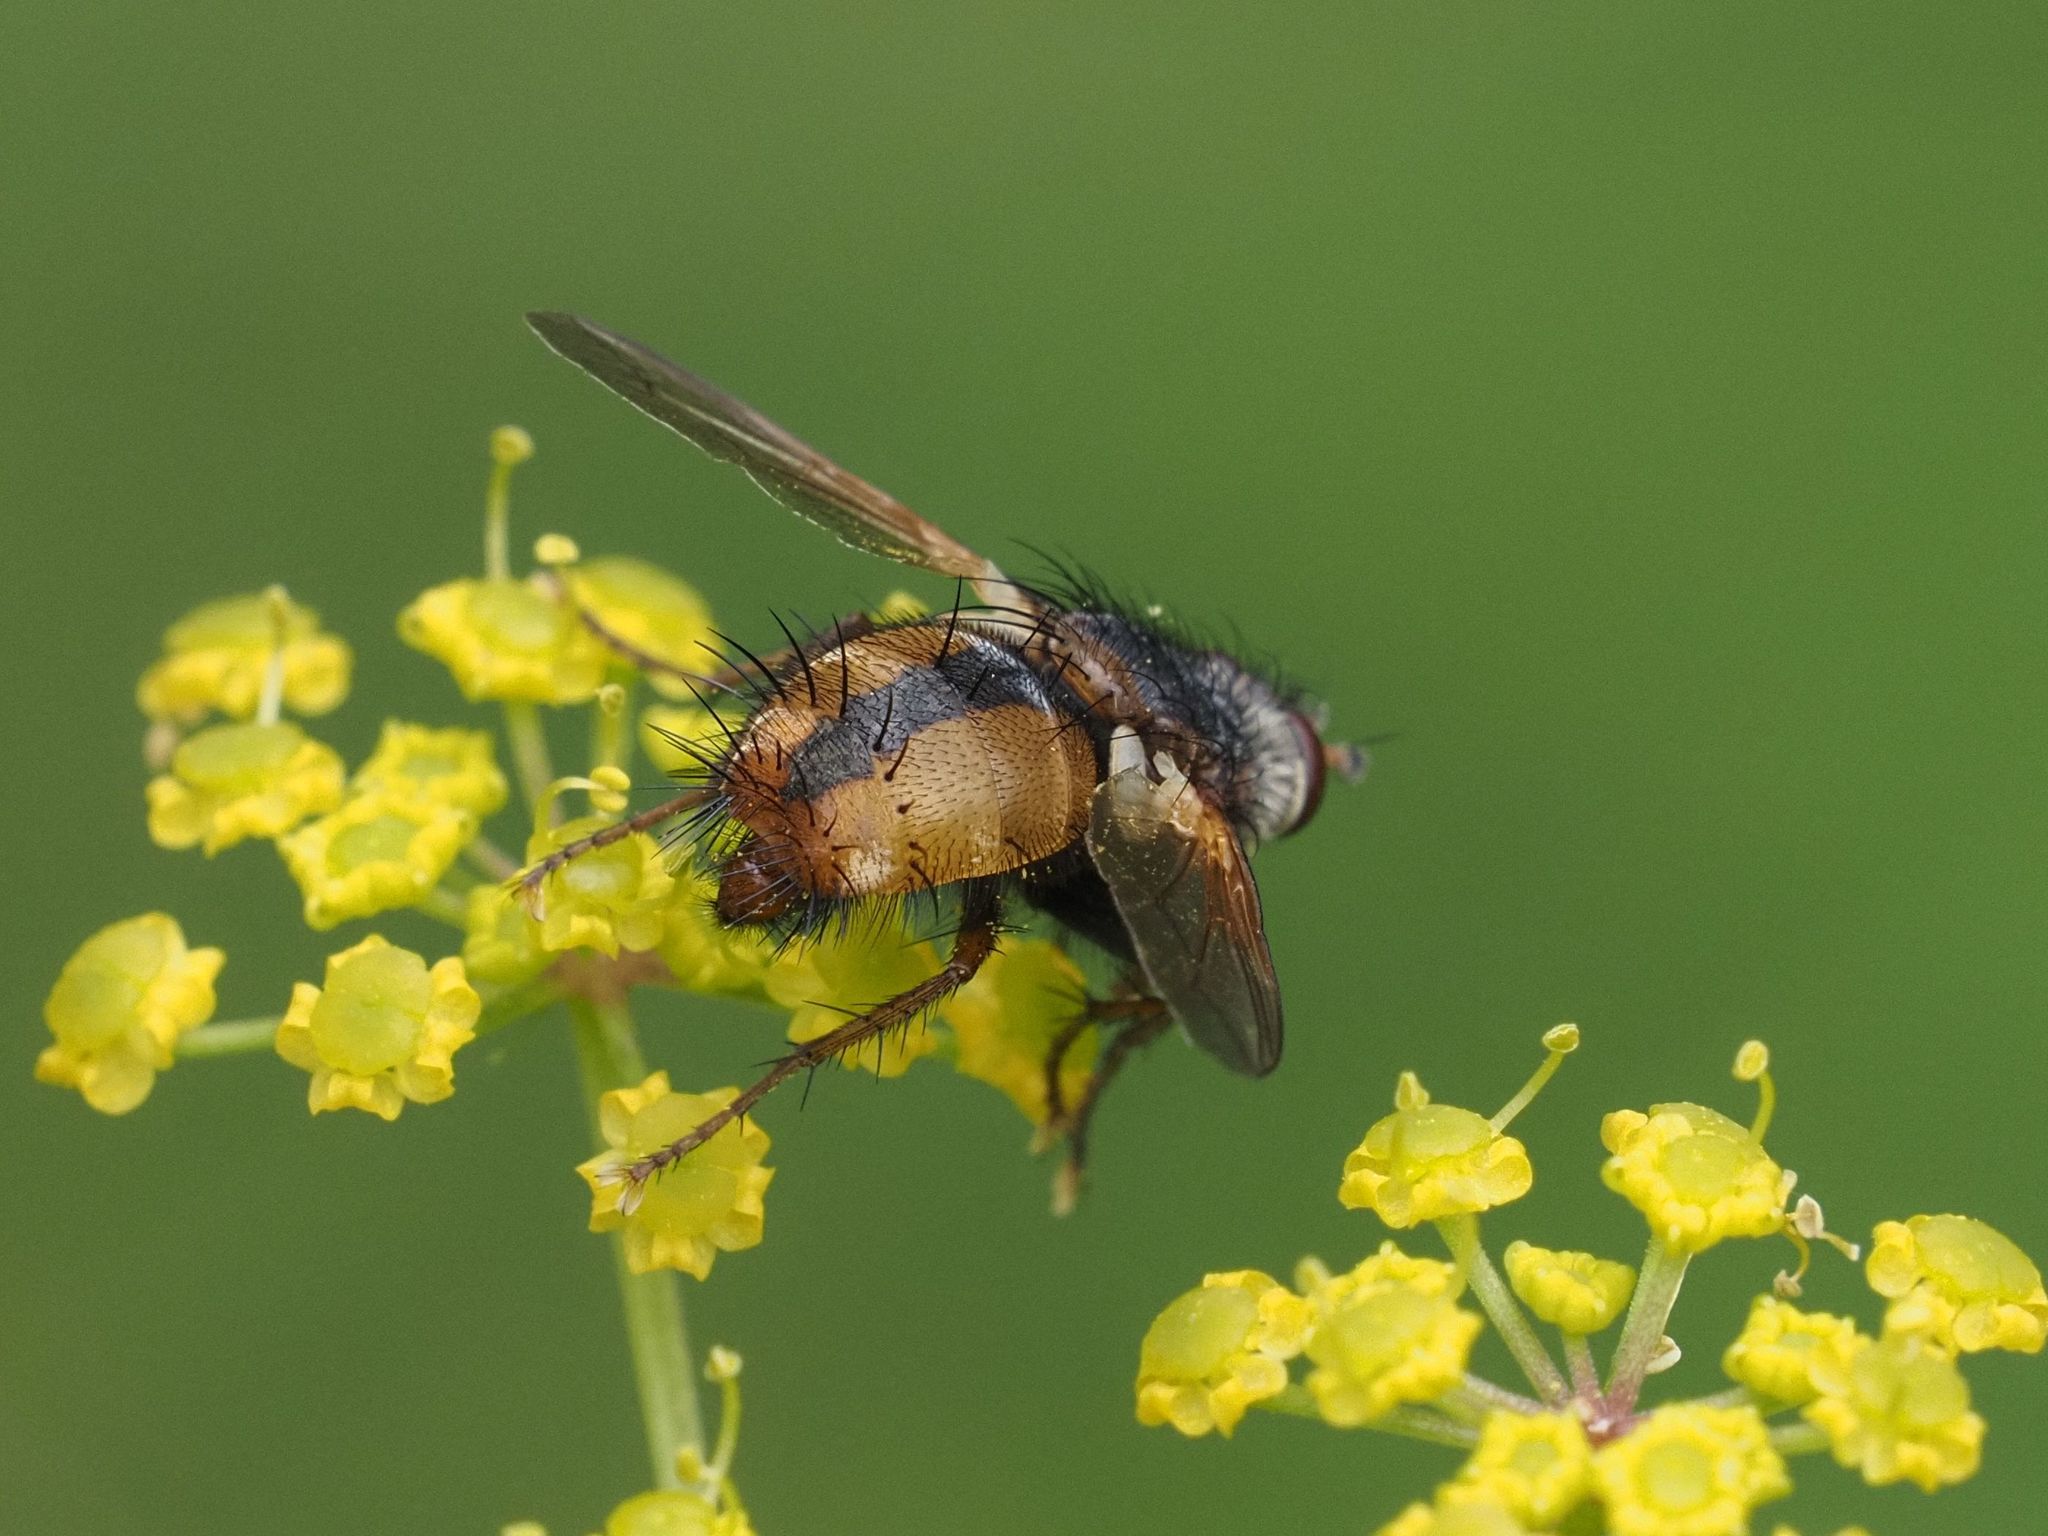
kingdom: Animalia
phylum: Arthropoda
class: Insecta
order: Diptera
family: Tachinidae
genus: Tachina
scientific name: Tachina fera
